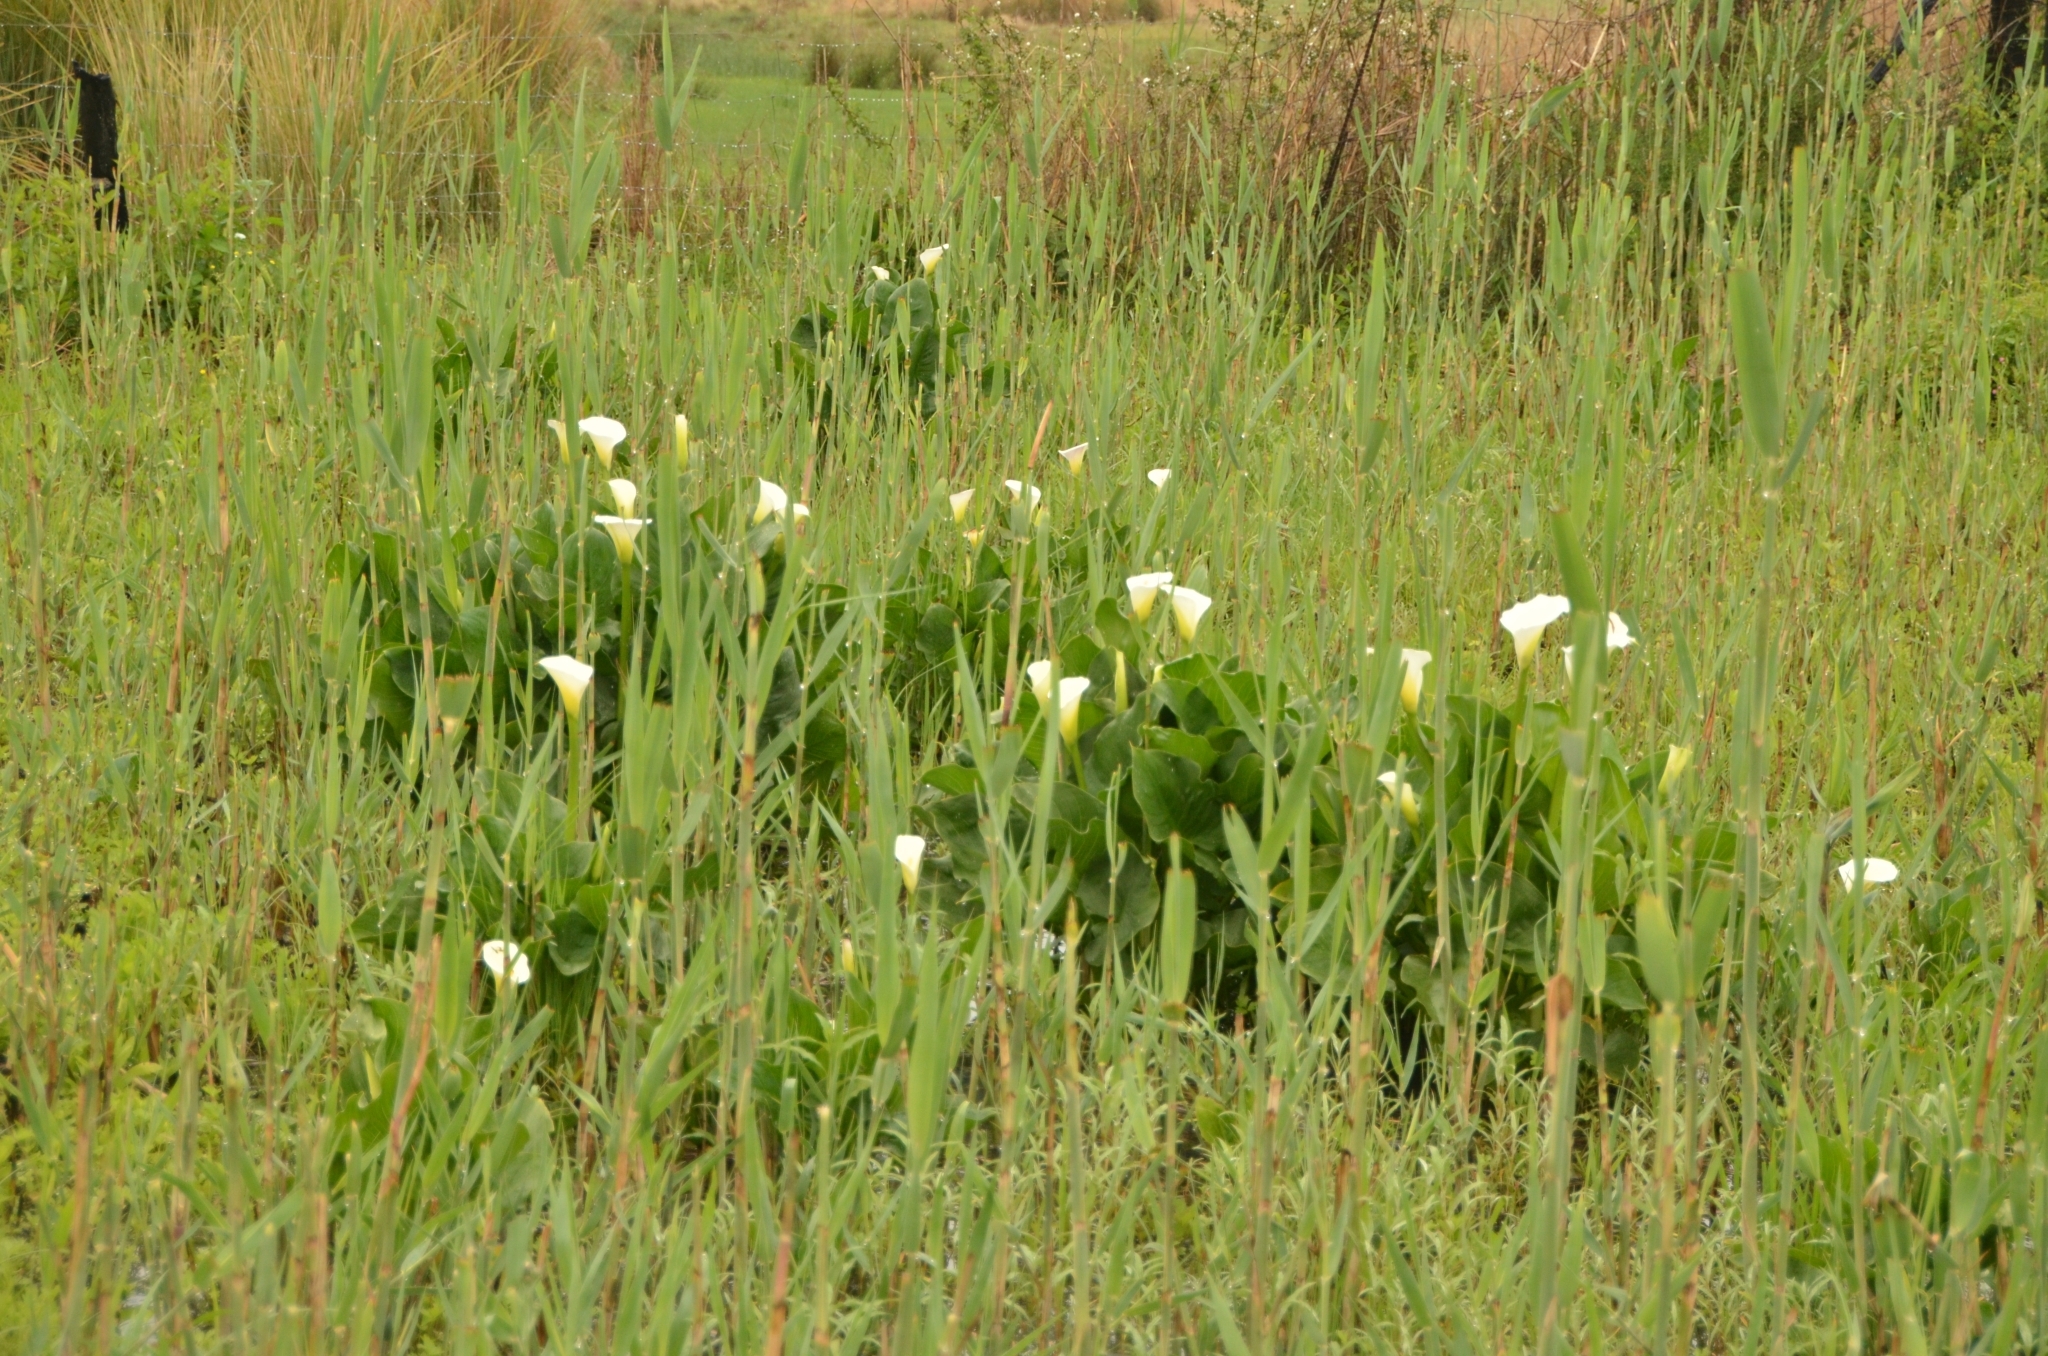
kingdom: Plantae
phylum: Tracheophyta
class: Liliopsida
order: Alismatales
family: Araceae
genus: Zantedeschia
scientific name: Zantedeschia aethiopica
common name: Altar-lily
